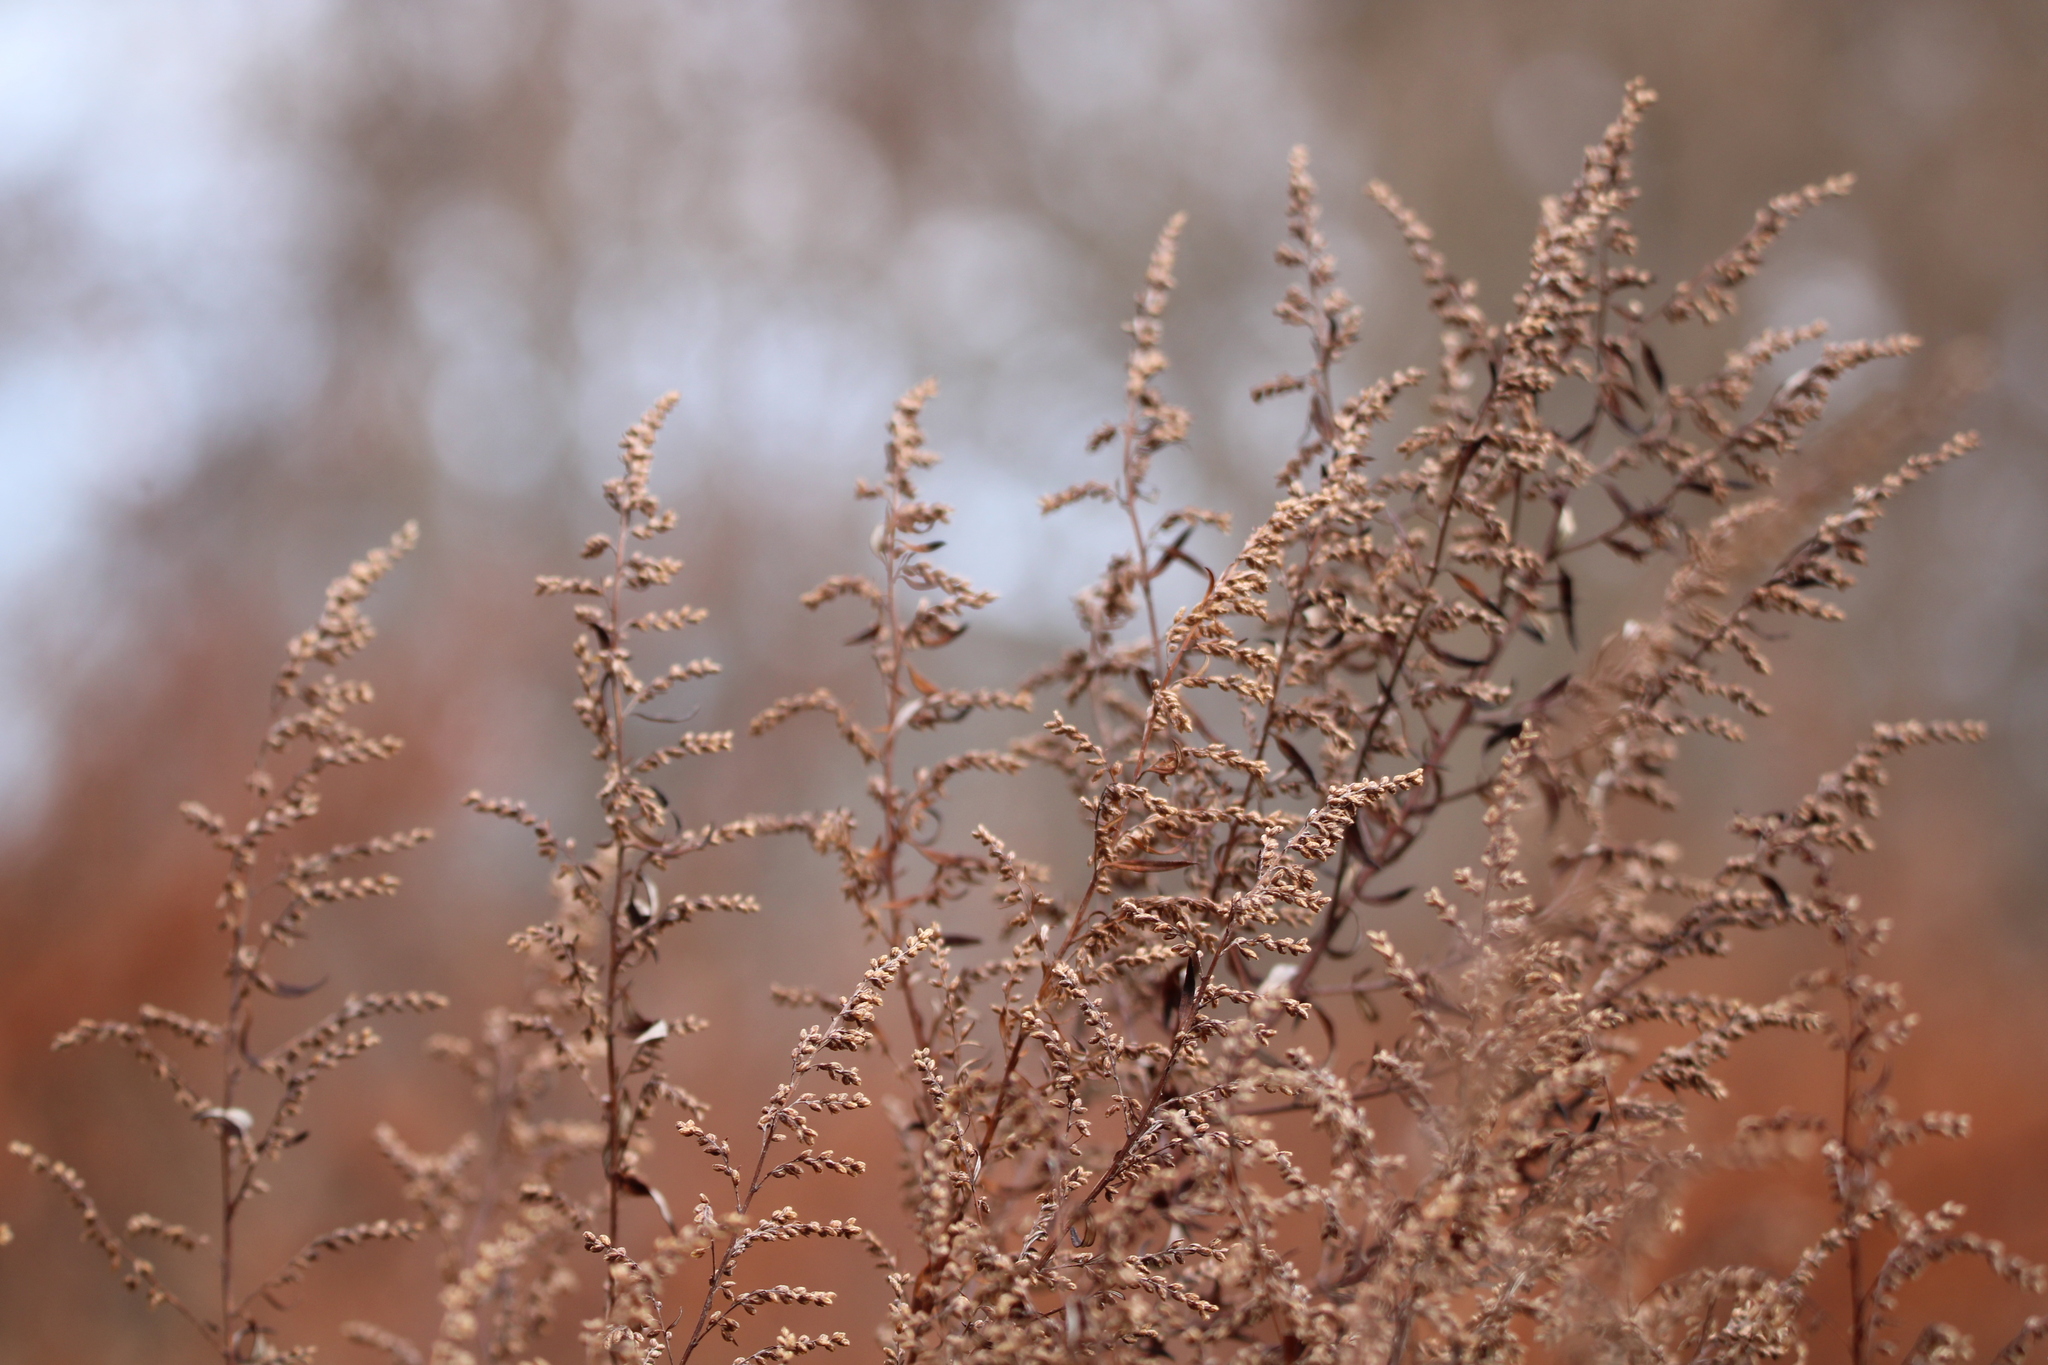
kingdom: Plantae
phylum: Tracheophyta
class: Magnoliopsida
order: Asterales
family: Asteraceae
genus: Artemisia
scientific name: Artemisia vulgaris
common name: Mugwort
